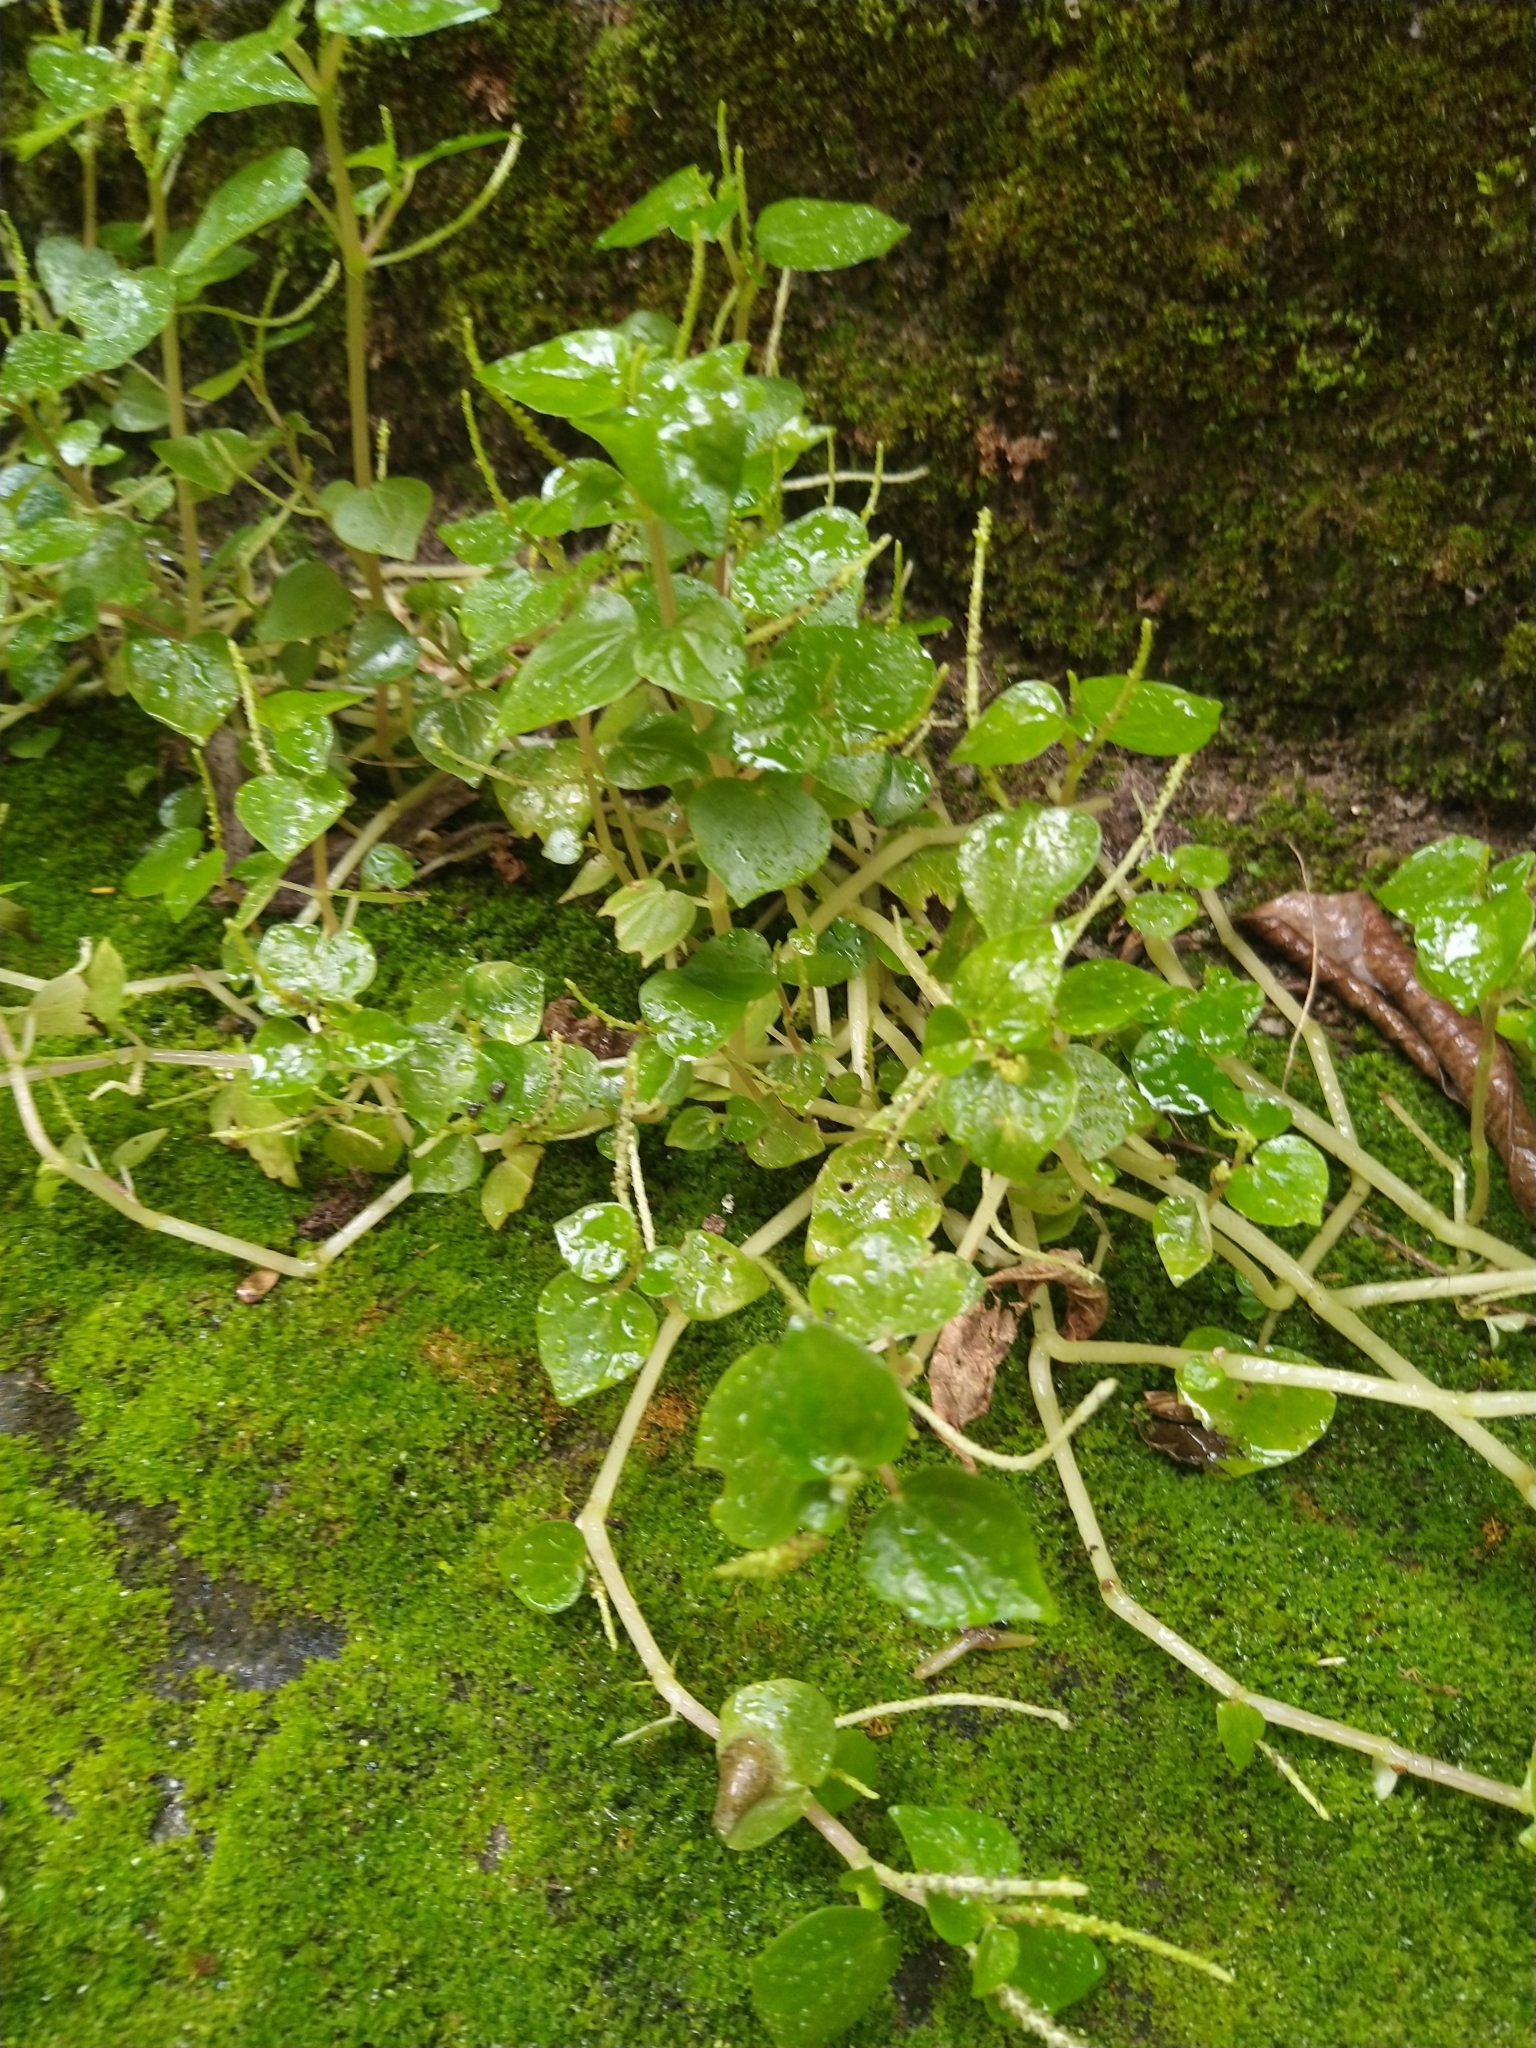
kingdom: Plantae
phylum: Tracheophyta
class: Magnoliopsida
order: Piperales
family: Piperaceae
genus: Peperomia
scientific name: Peperomia pellucida
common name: Man to man
